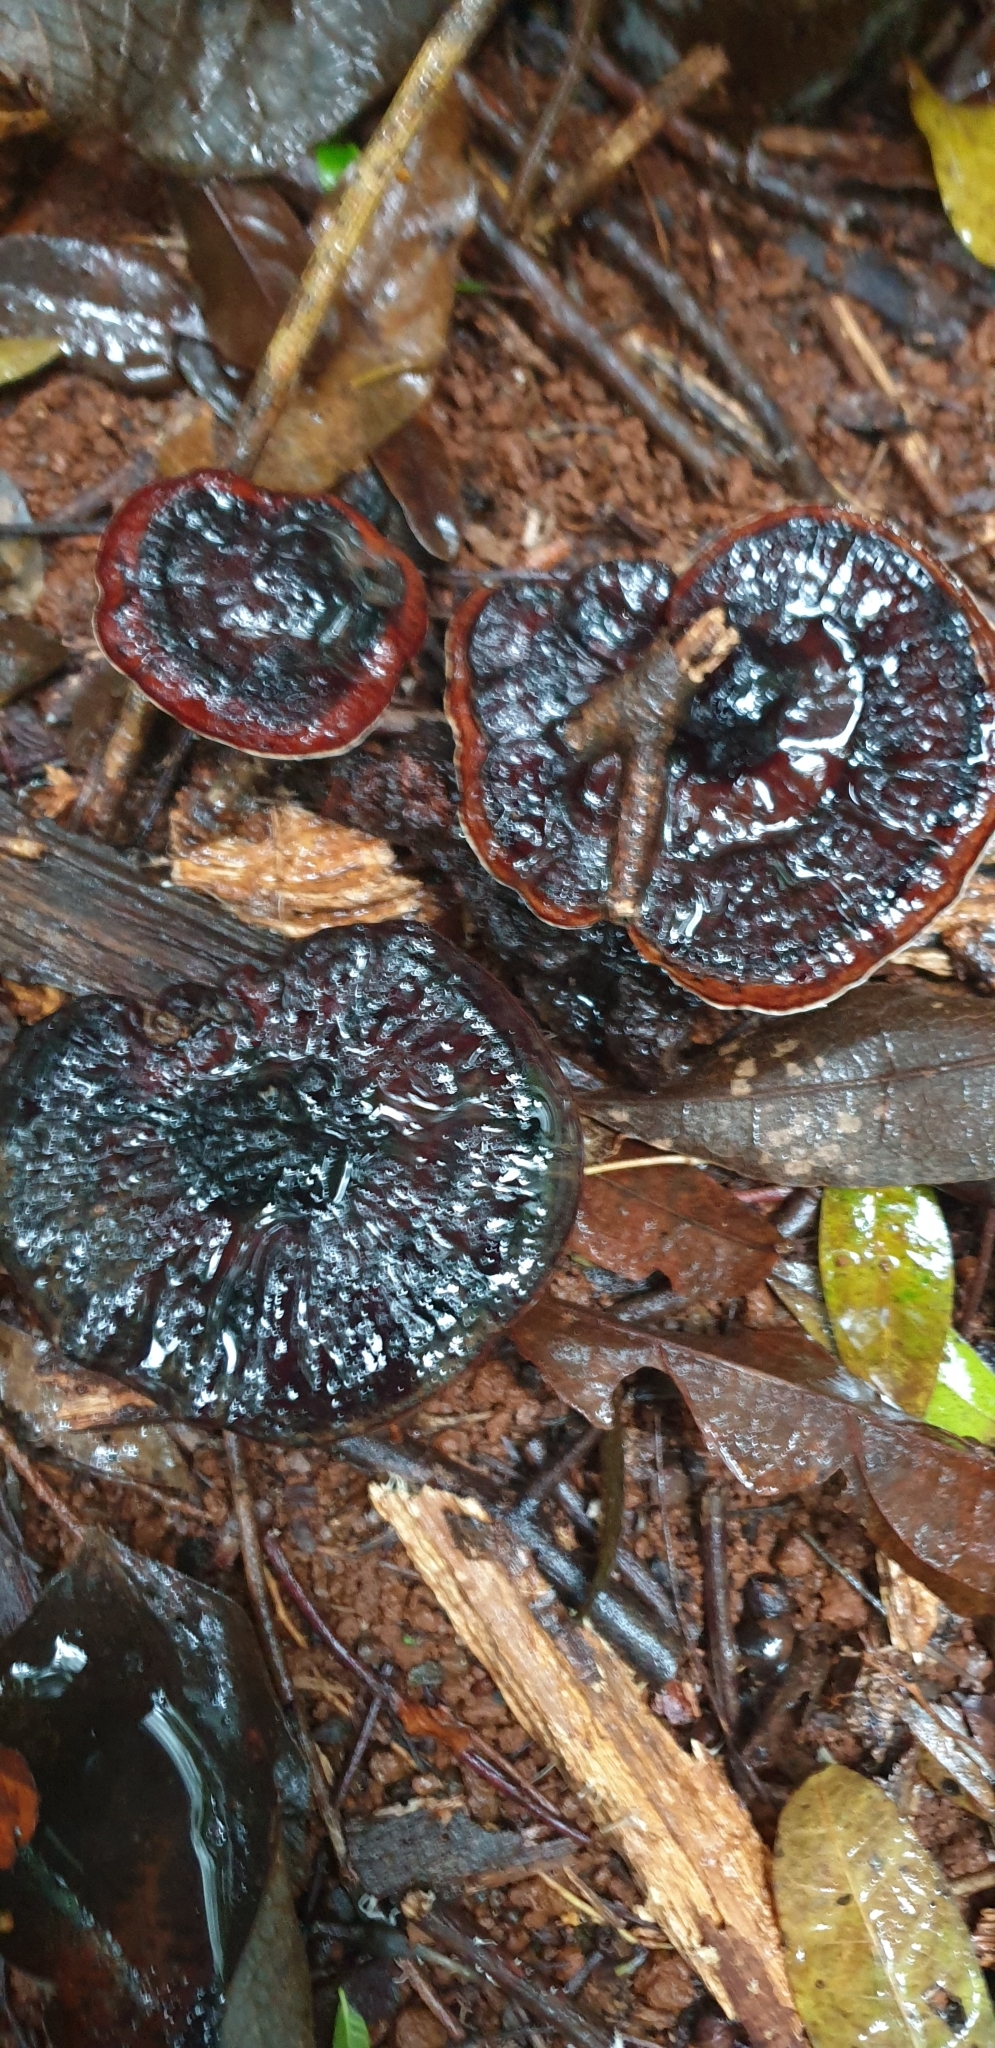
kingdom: Fungi
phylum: Basidiomycota
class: Agaricomycetes
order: Polyporales
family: Ganodermataceae
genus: Sanguinoderma
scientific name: Sanguinoderma rude
